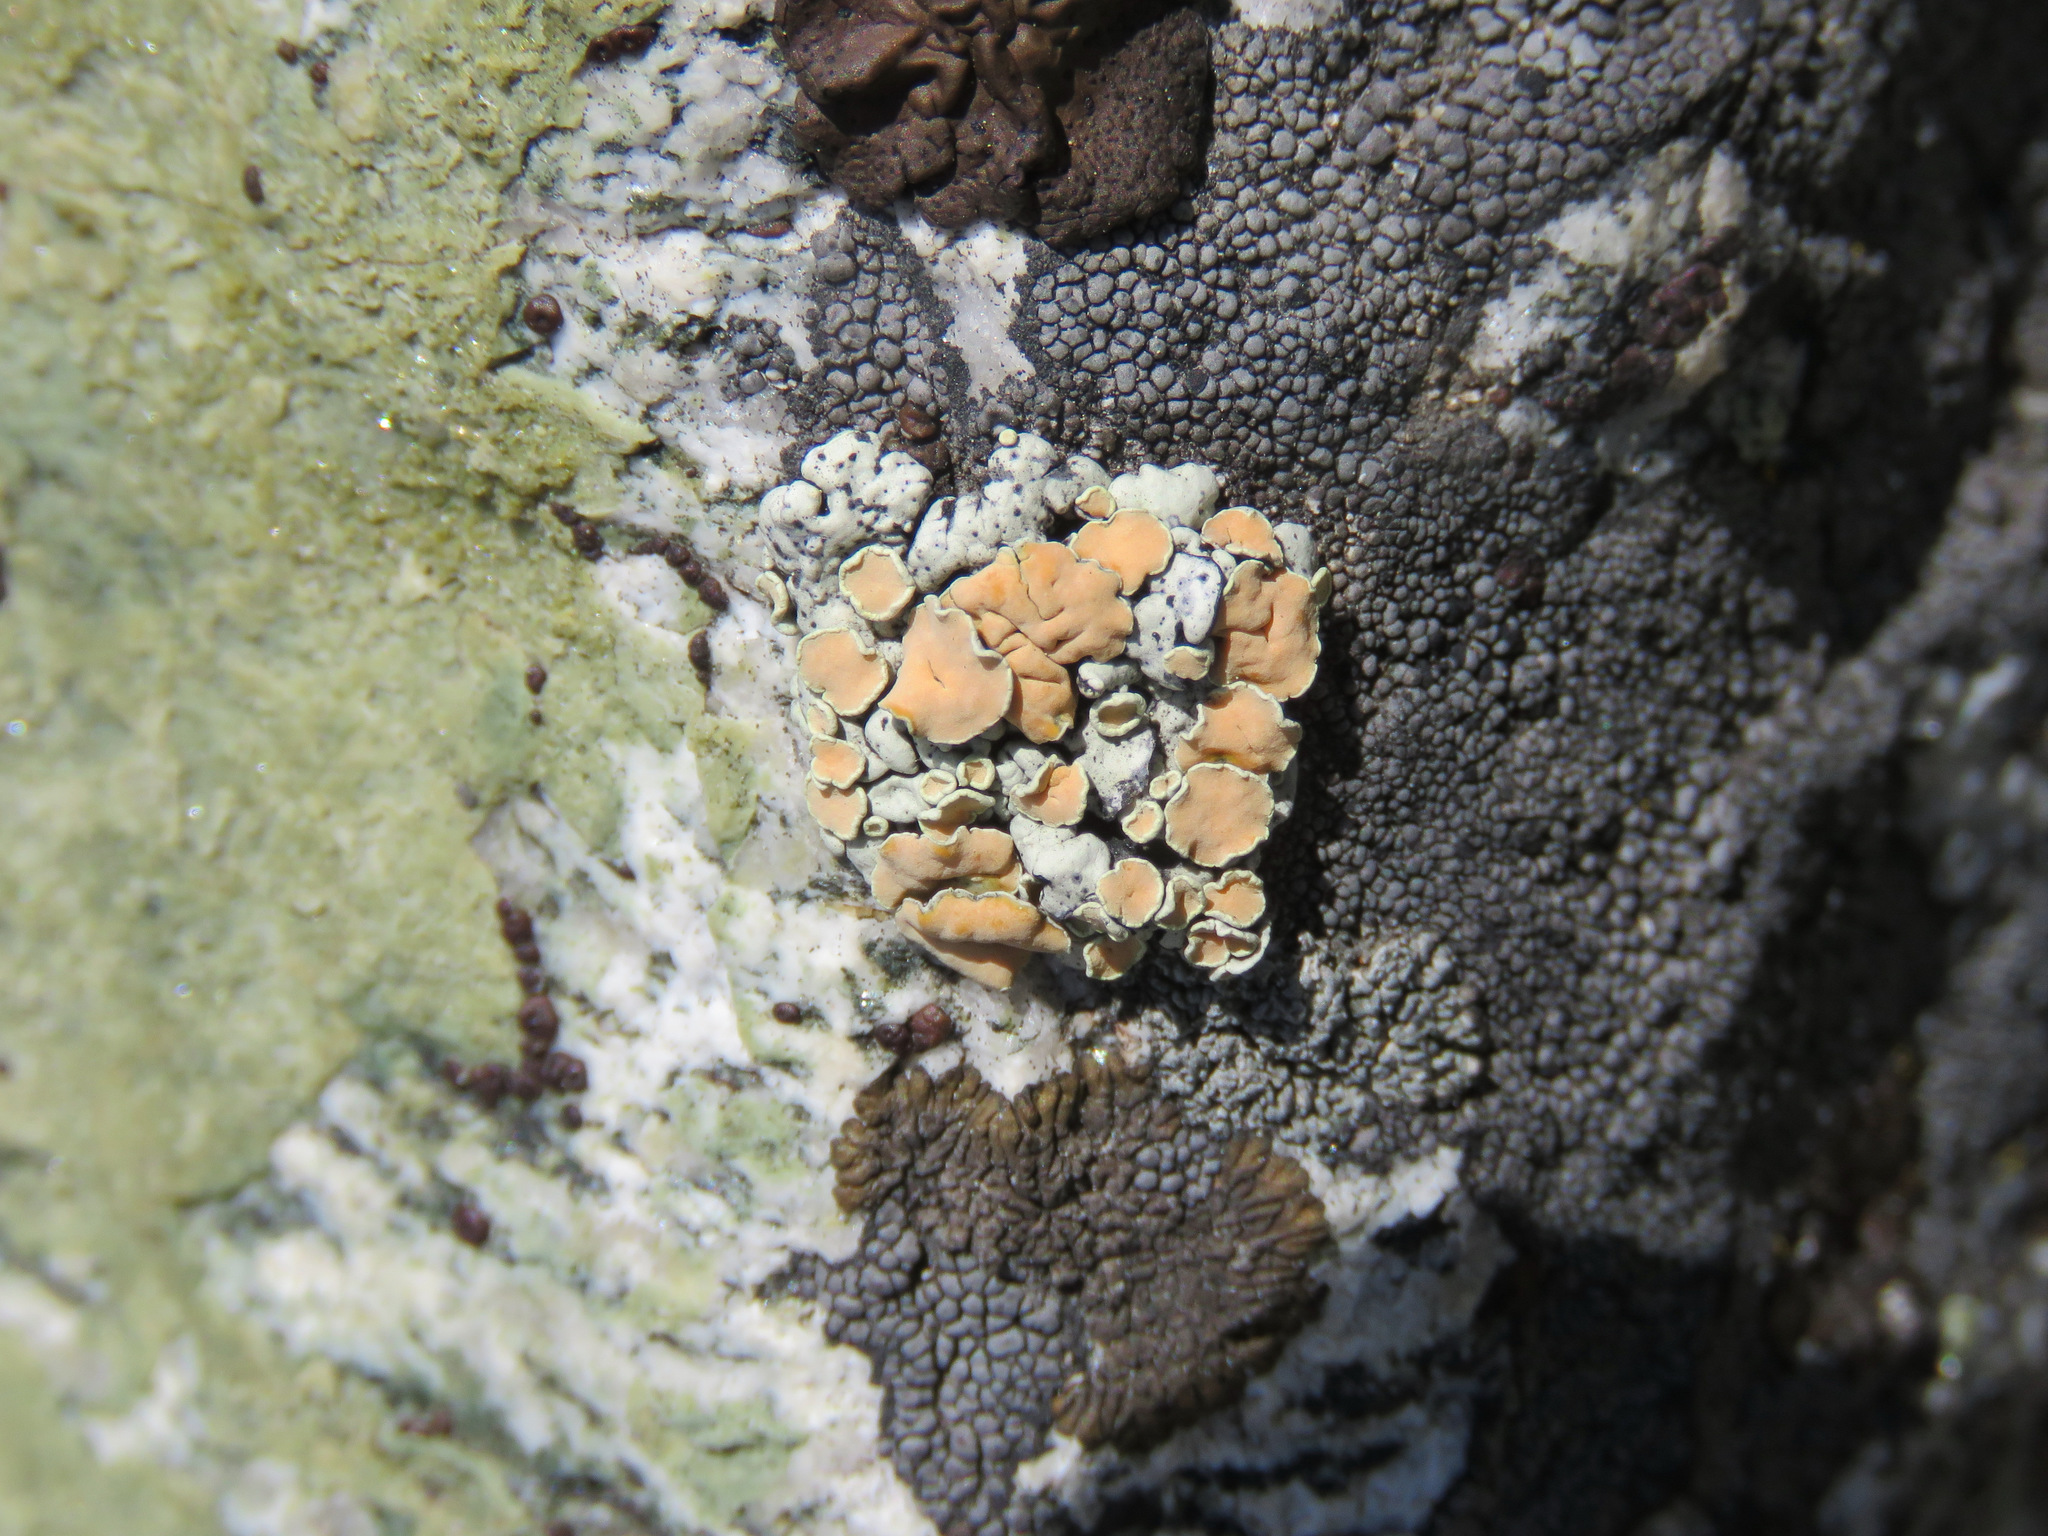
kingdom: Fungi
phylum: Ascomycota
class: Lecanoromycetes
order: Lecanorales
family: Lecanoraceae
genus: Omphalodina
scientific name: Omphalodina chrysoleuca
